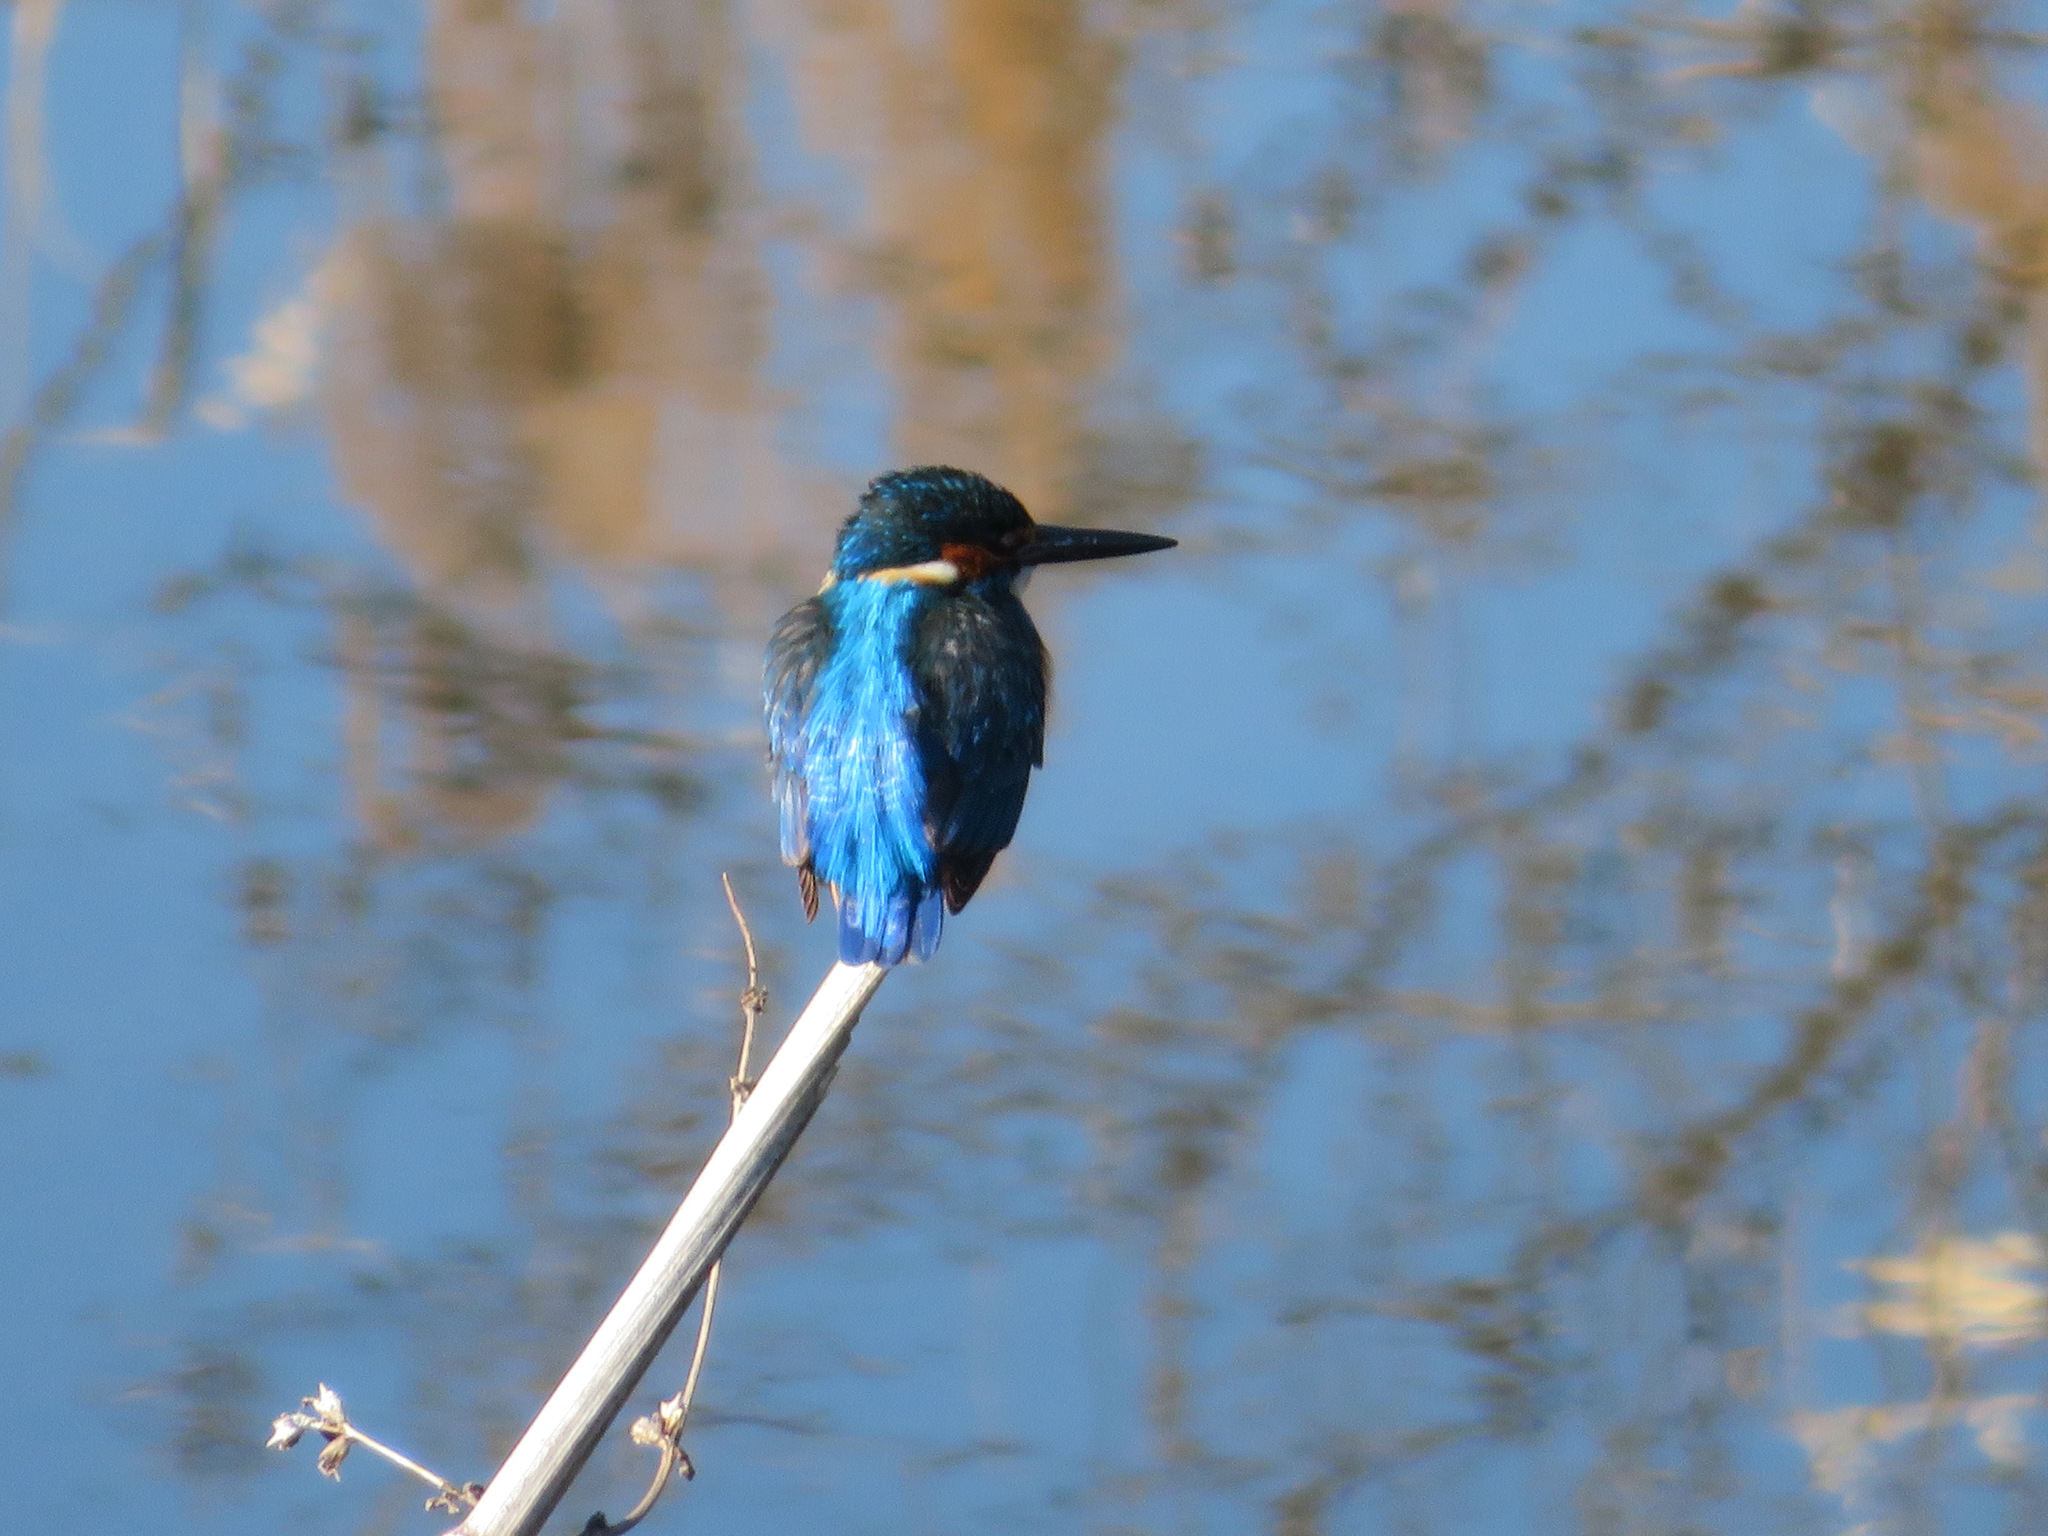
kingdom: Animalia
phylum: Chordata
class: Aves
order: Coraciiformes
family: Alcedinidae
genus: Alcedo
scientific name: Alcedo atthis
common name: Common kingfisher
